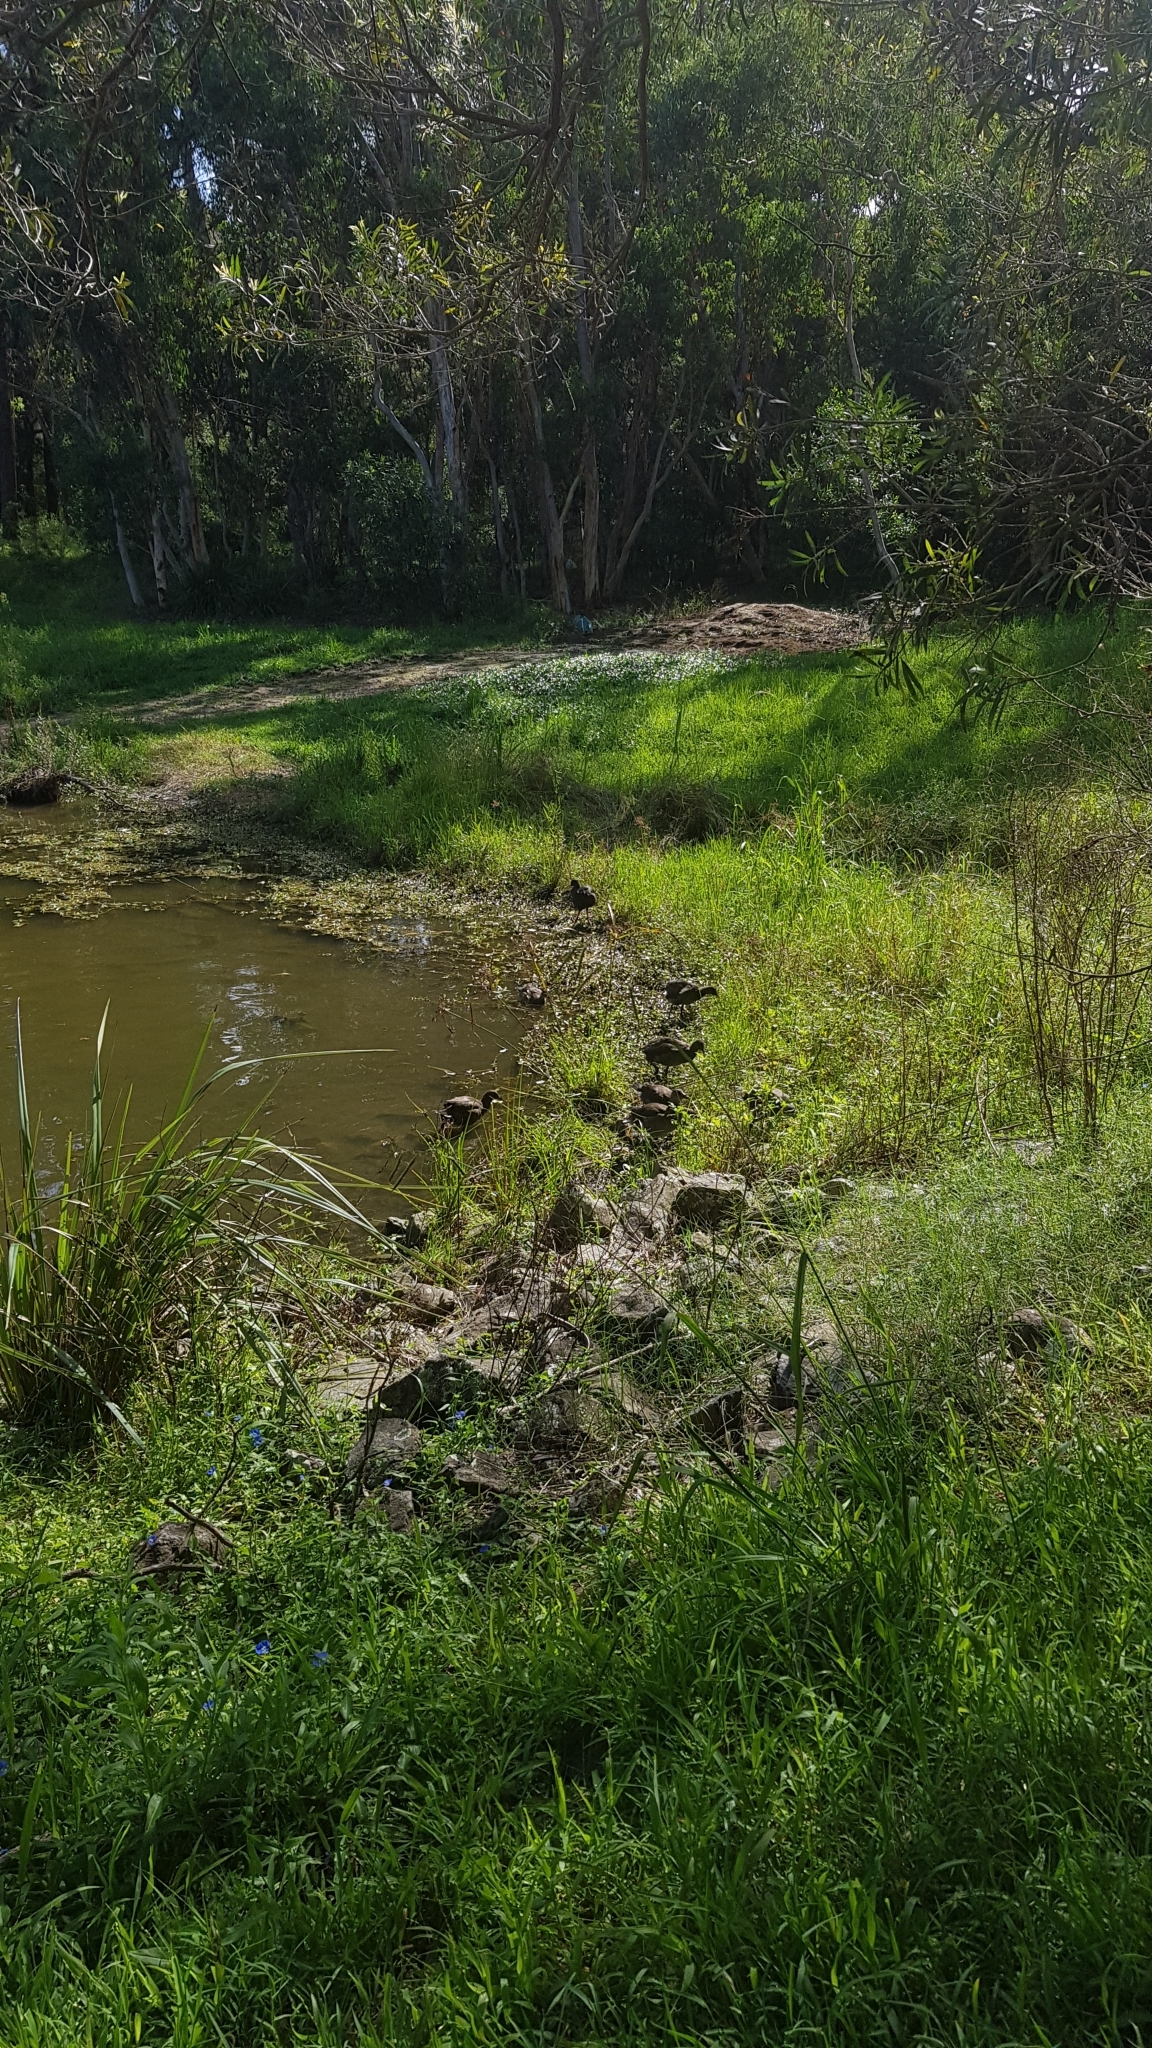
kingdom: Animalia
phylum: Chordata
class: Aves
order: Gruiformes
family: Rallidae
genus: Gallinula
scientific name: Gallinula tenebrosa
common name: Dusky moorhen
